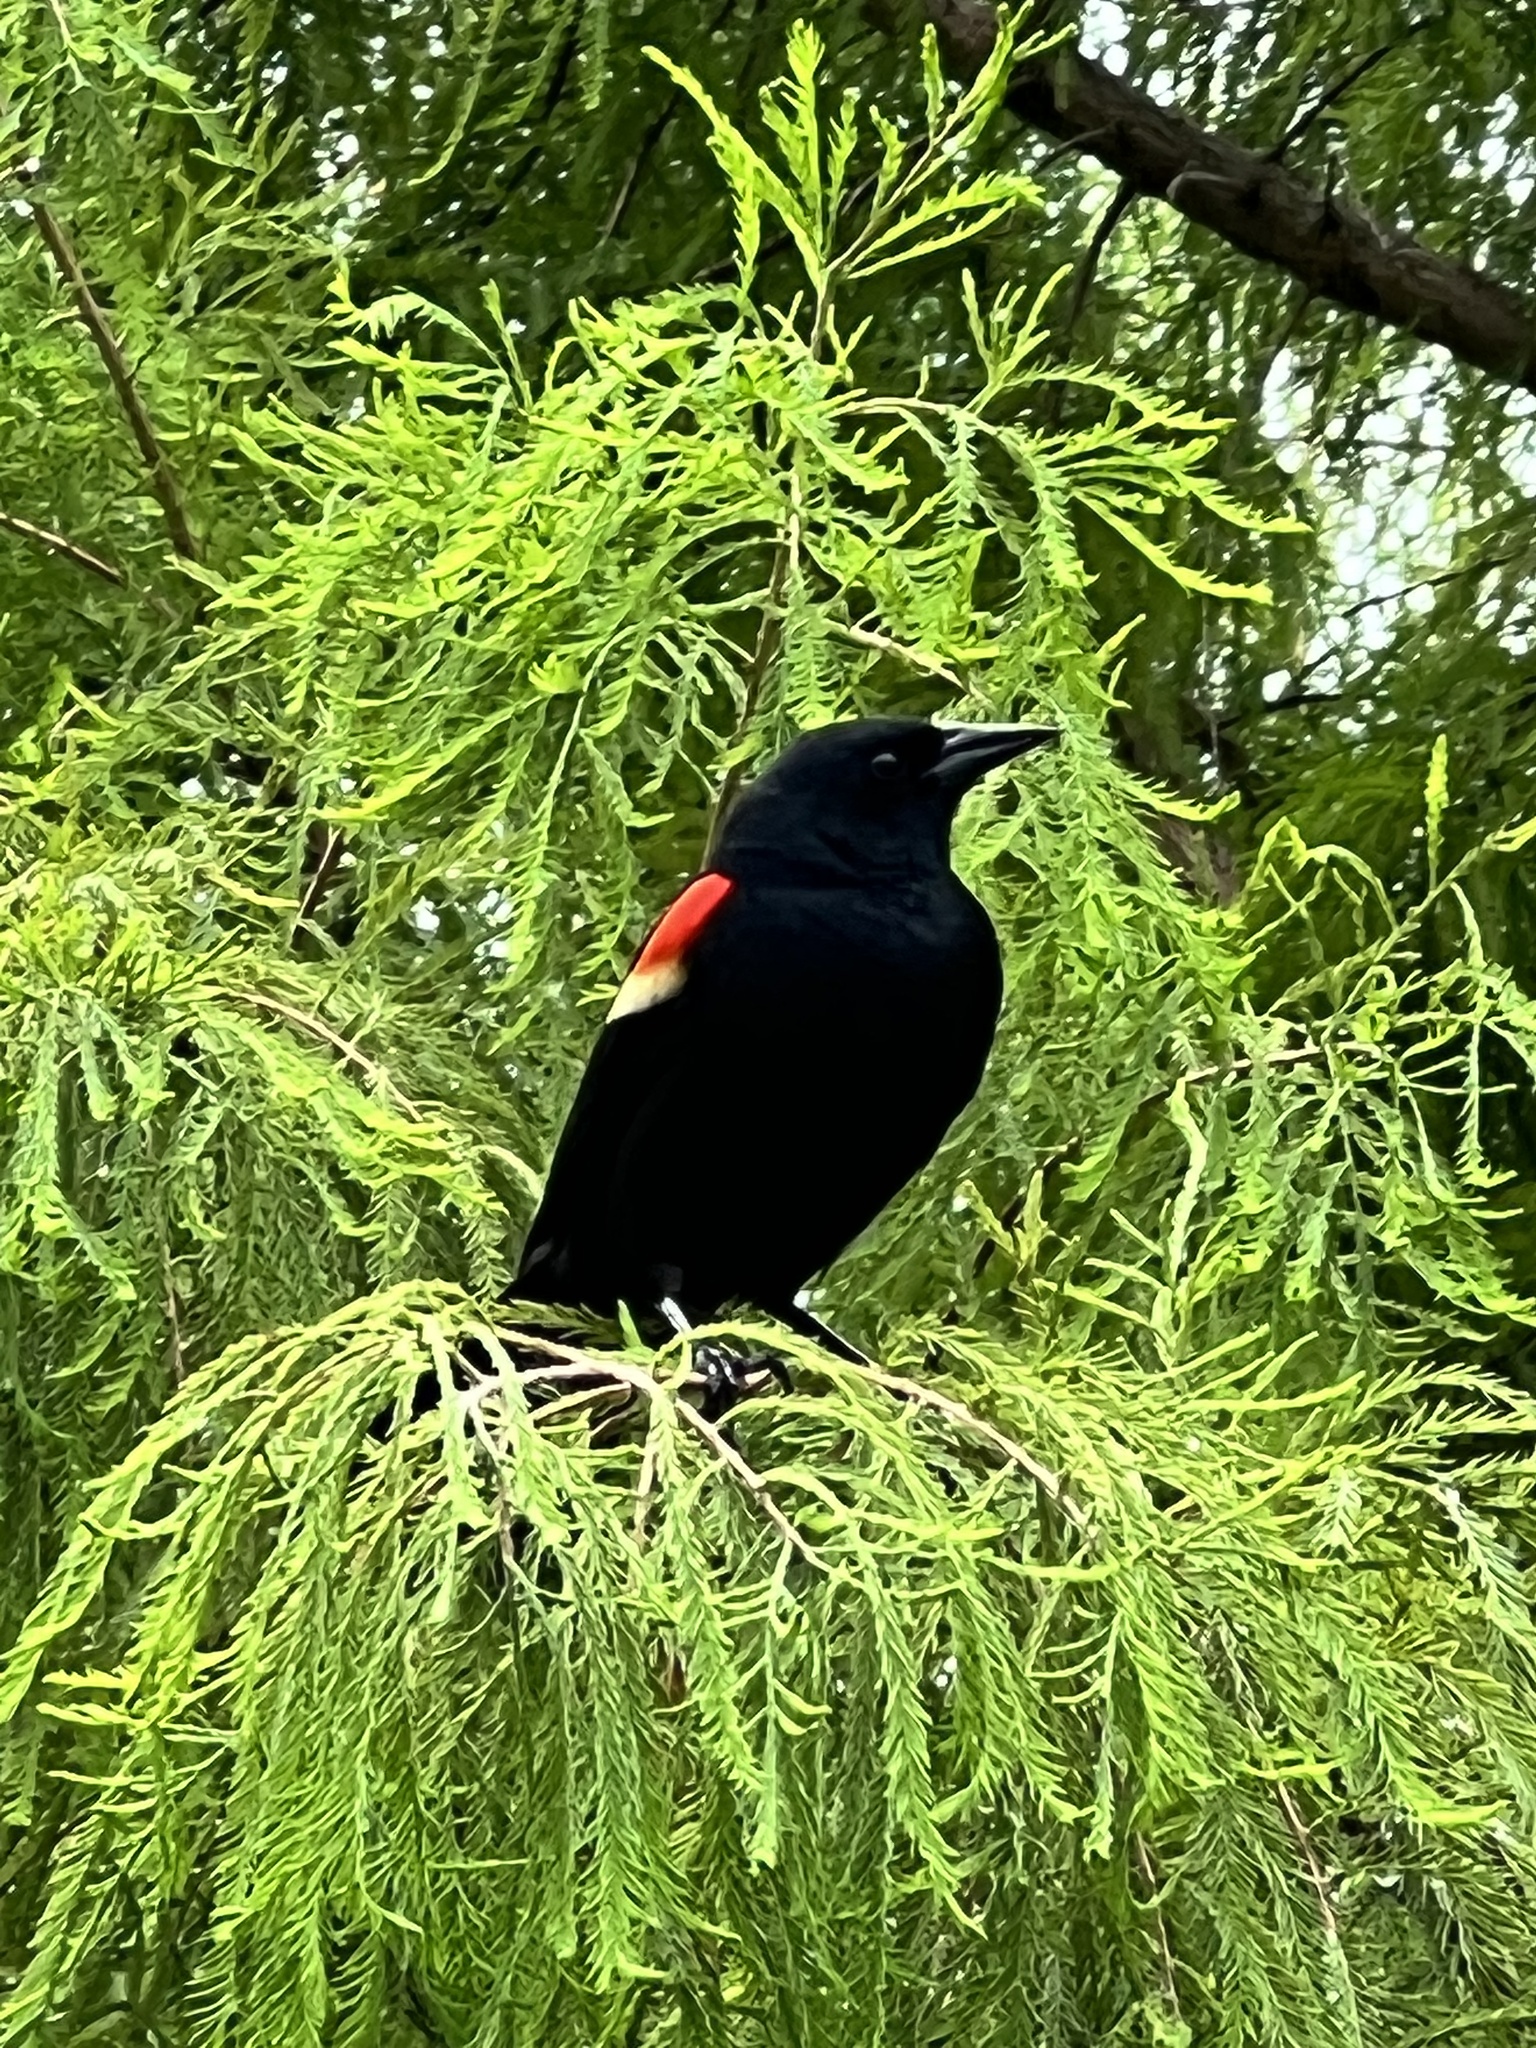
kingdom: Animalia
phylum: Chordata
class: Aves
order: Passeriformes
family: Icteridae
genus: Agelaius
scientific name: Agelaius phoeniceus
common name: Red-winged blackbird
